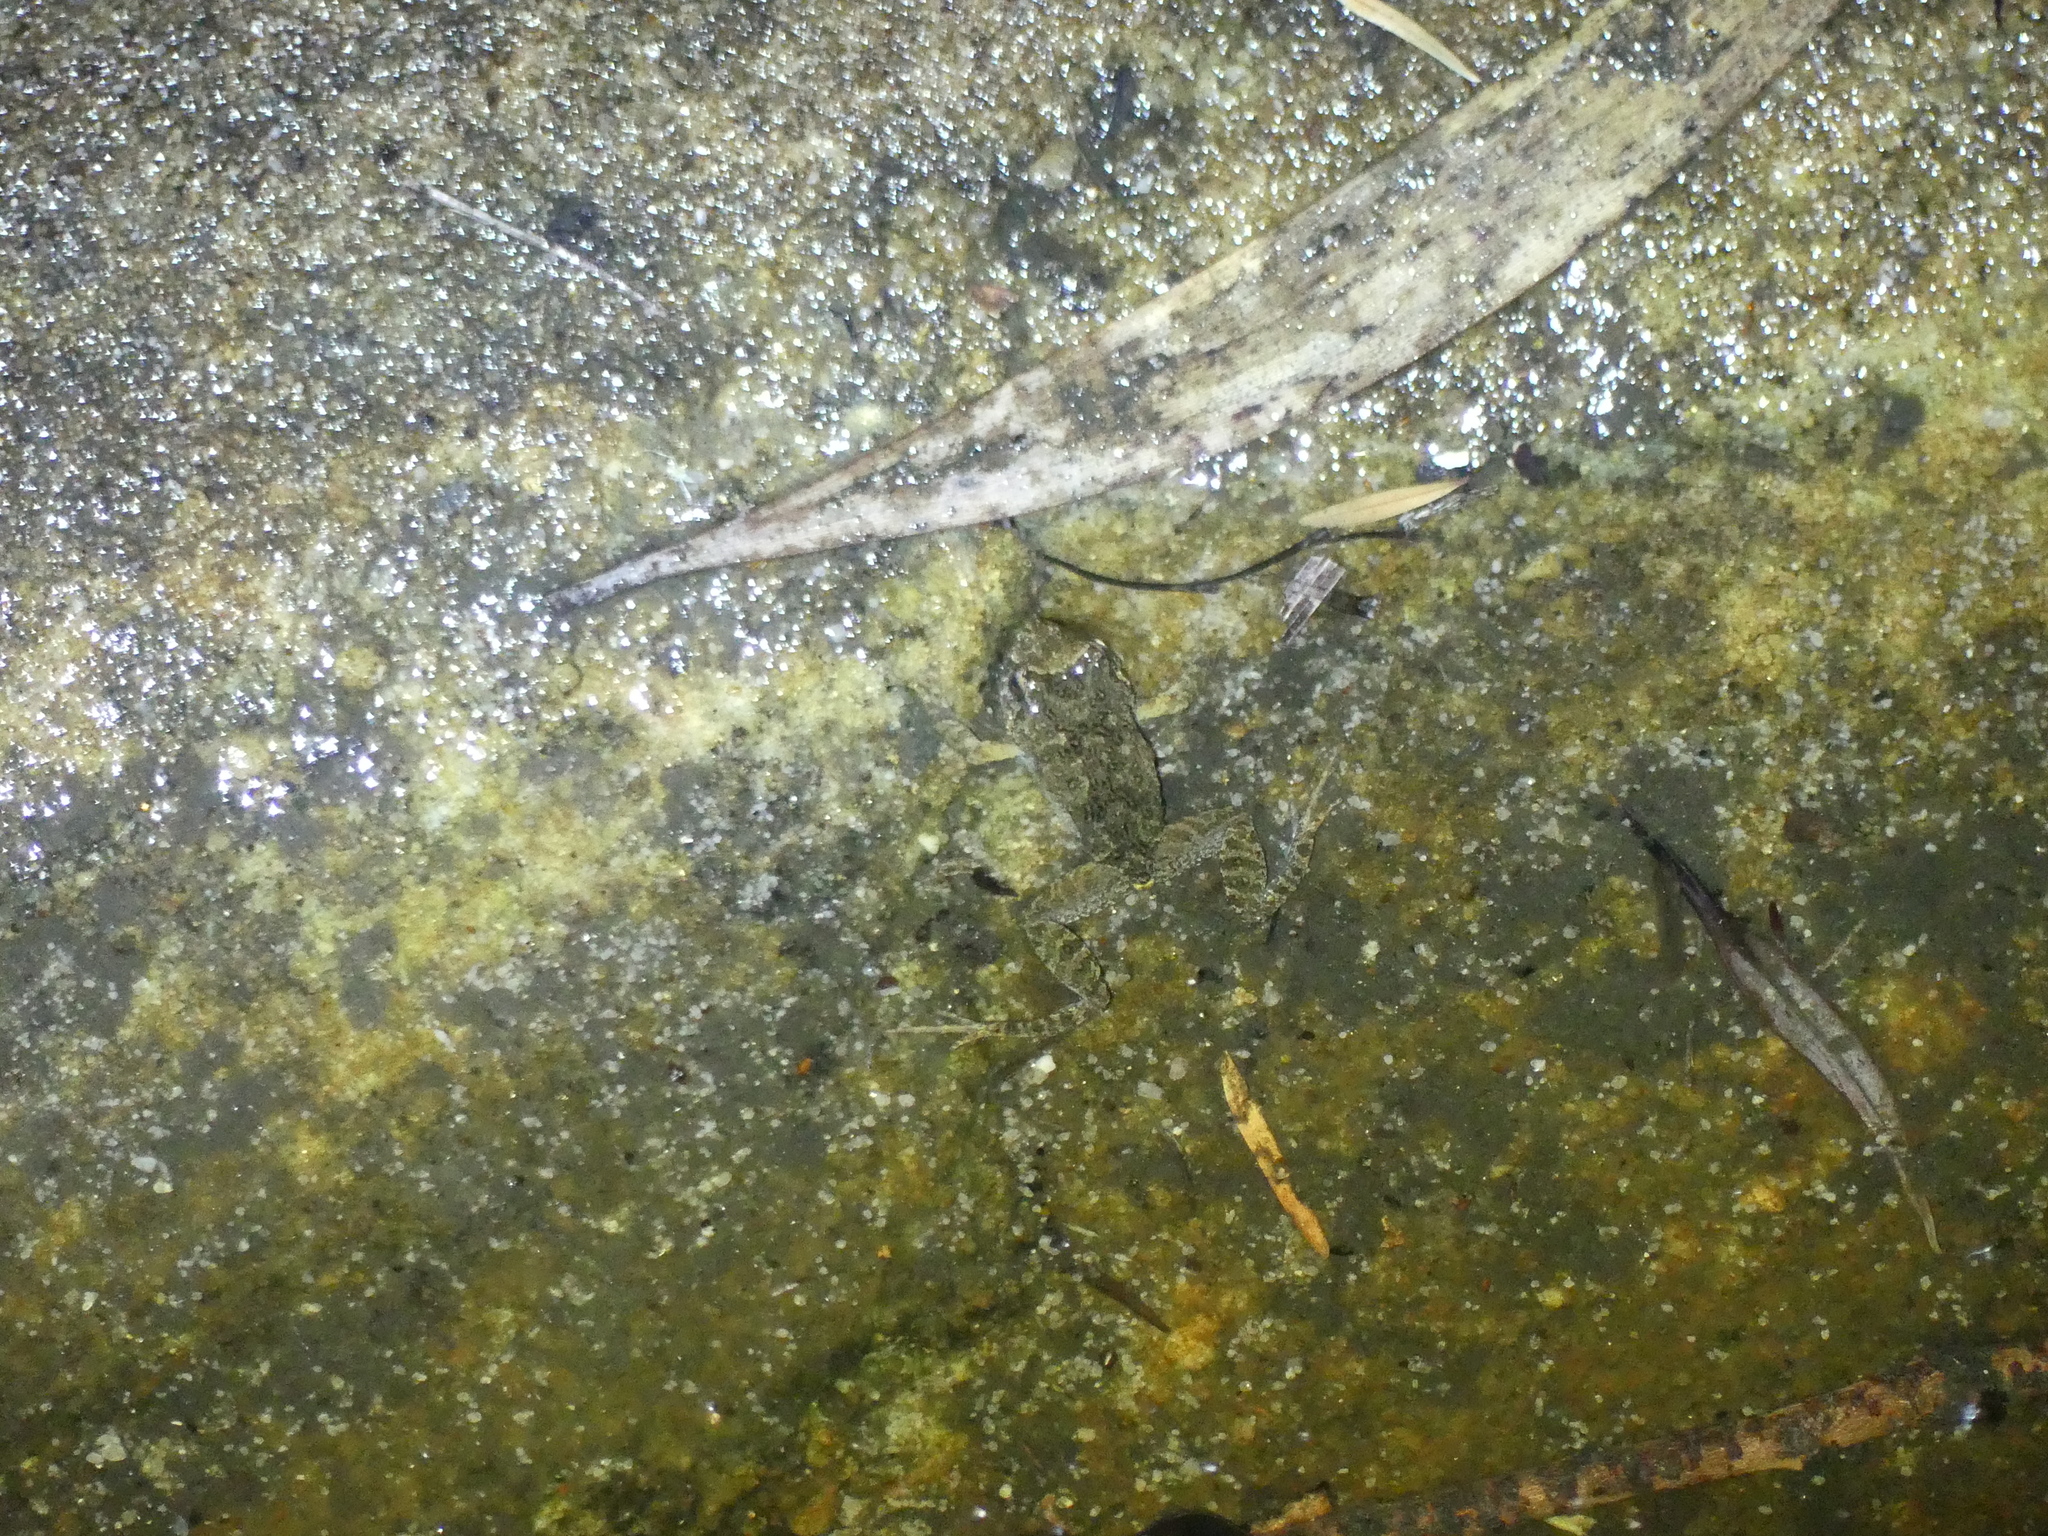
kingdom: Animalia
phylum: Chordata
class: Amphibia
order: Anura
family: Myobatrachidae
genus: Crinia
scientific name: Crinia signifera
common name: Brown froglet
